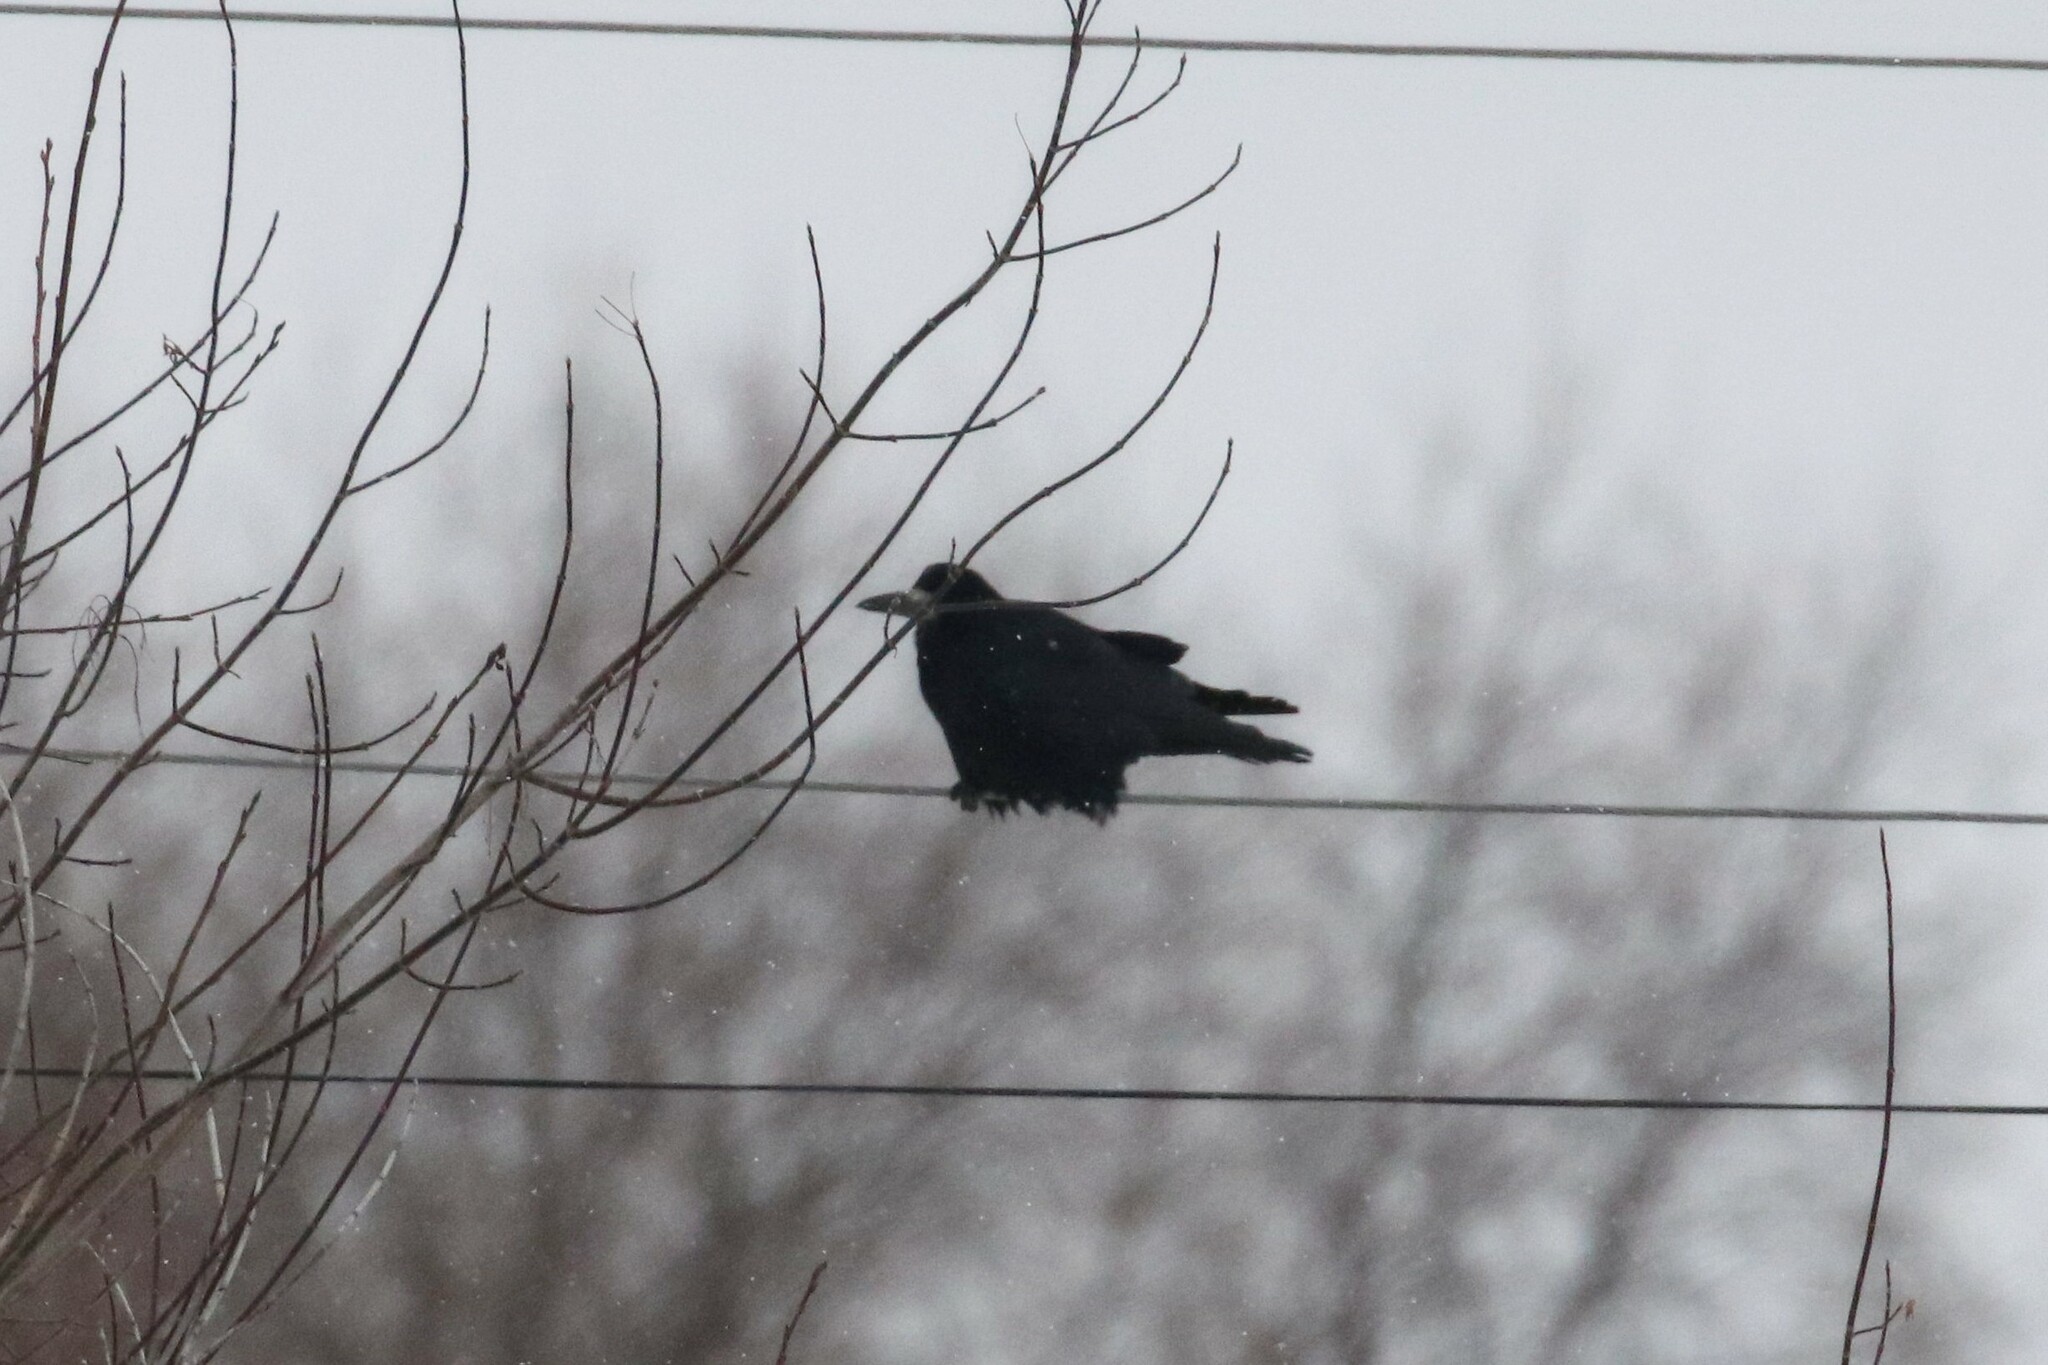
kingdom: Animalia
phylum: Chordata
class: Aves
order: Passeriformes
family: Corvidae
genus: Corvus
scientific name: Corvus frugilegus
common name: Rook
